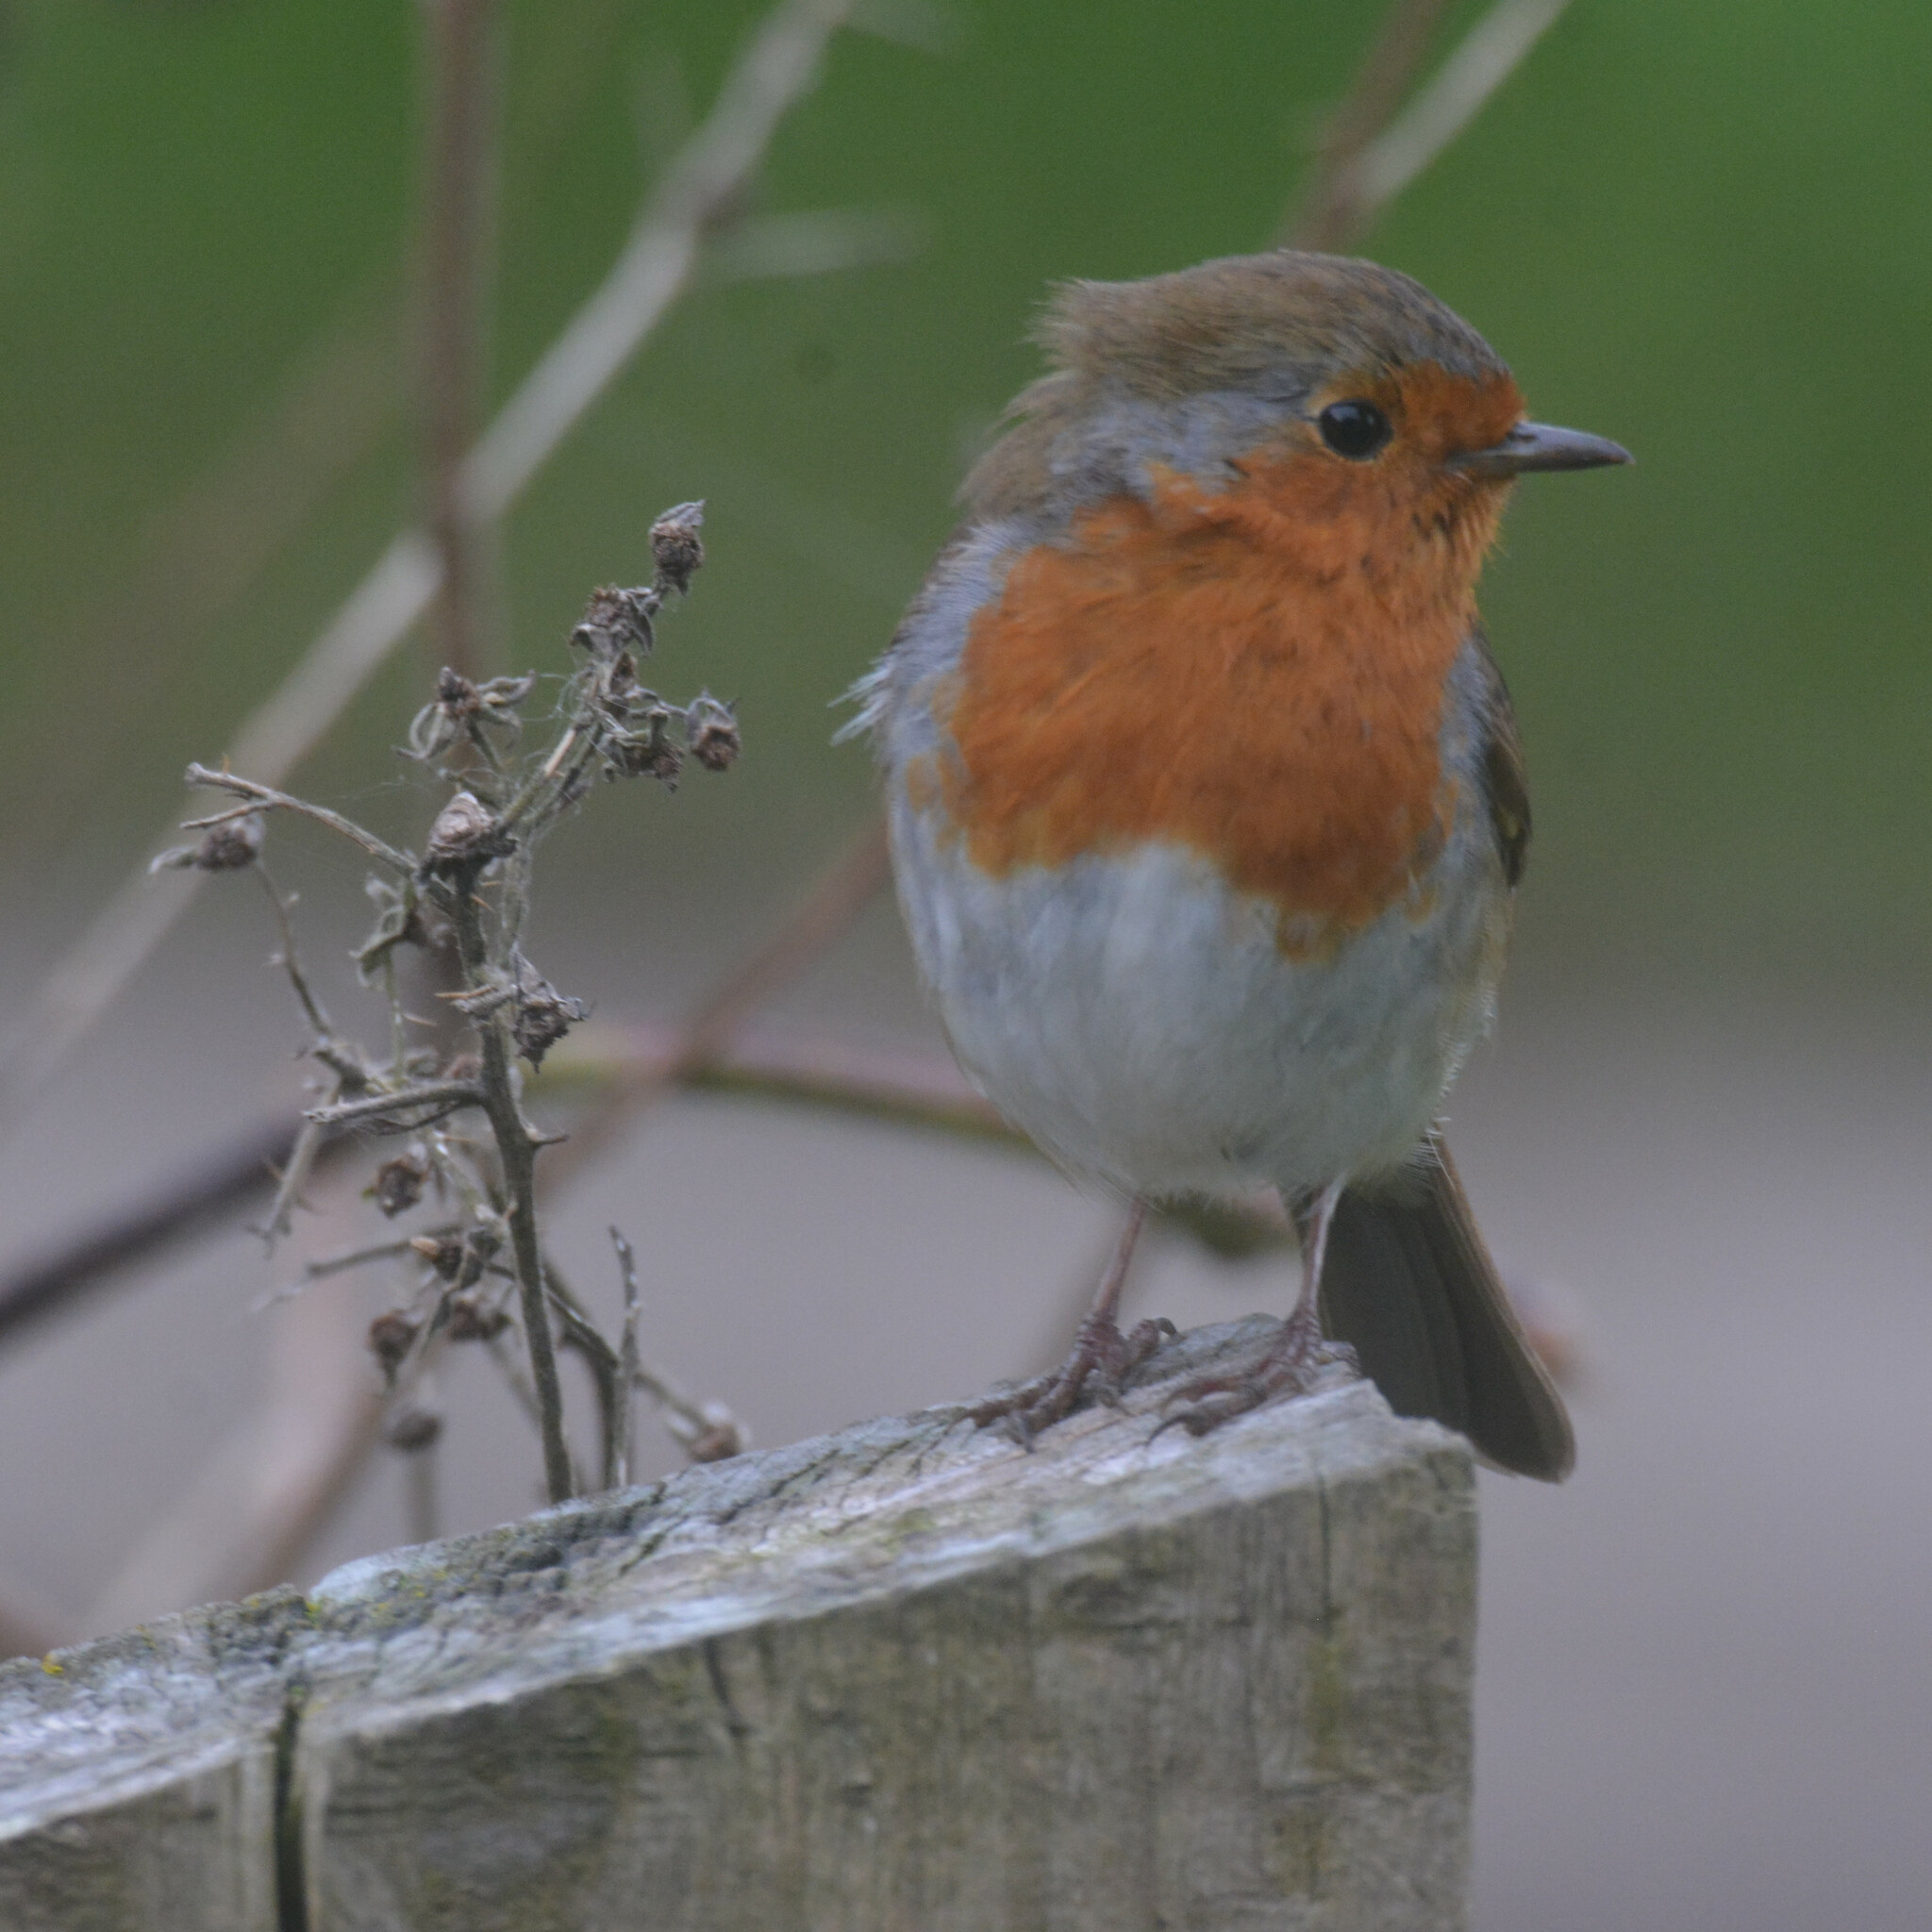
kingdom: Animalia
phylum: Chordata
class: Aves
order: Passeriformes
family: Muscicapidae
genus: Erithacus
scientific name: Erithacus rubecula
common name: European robin
